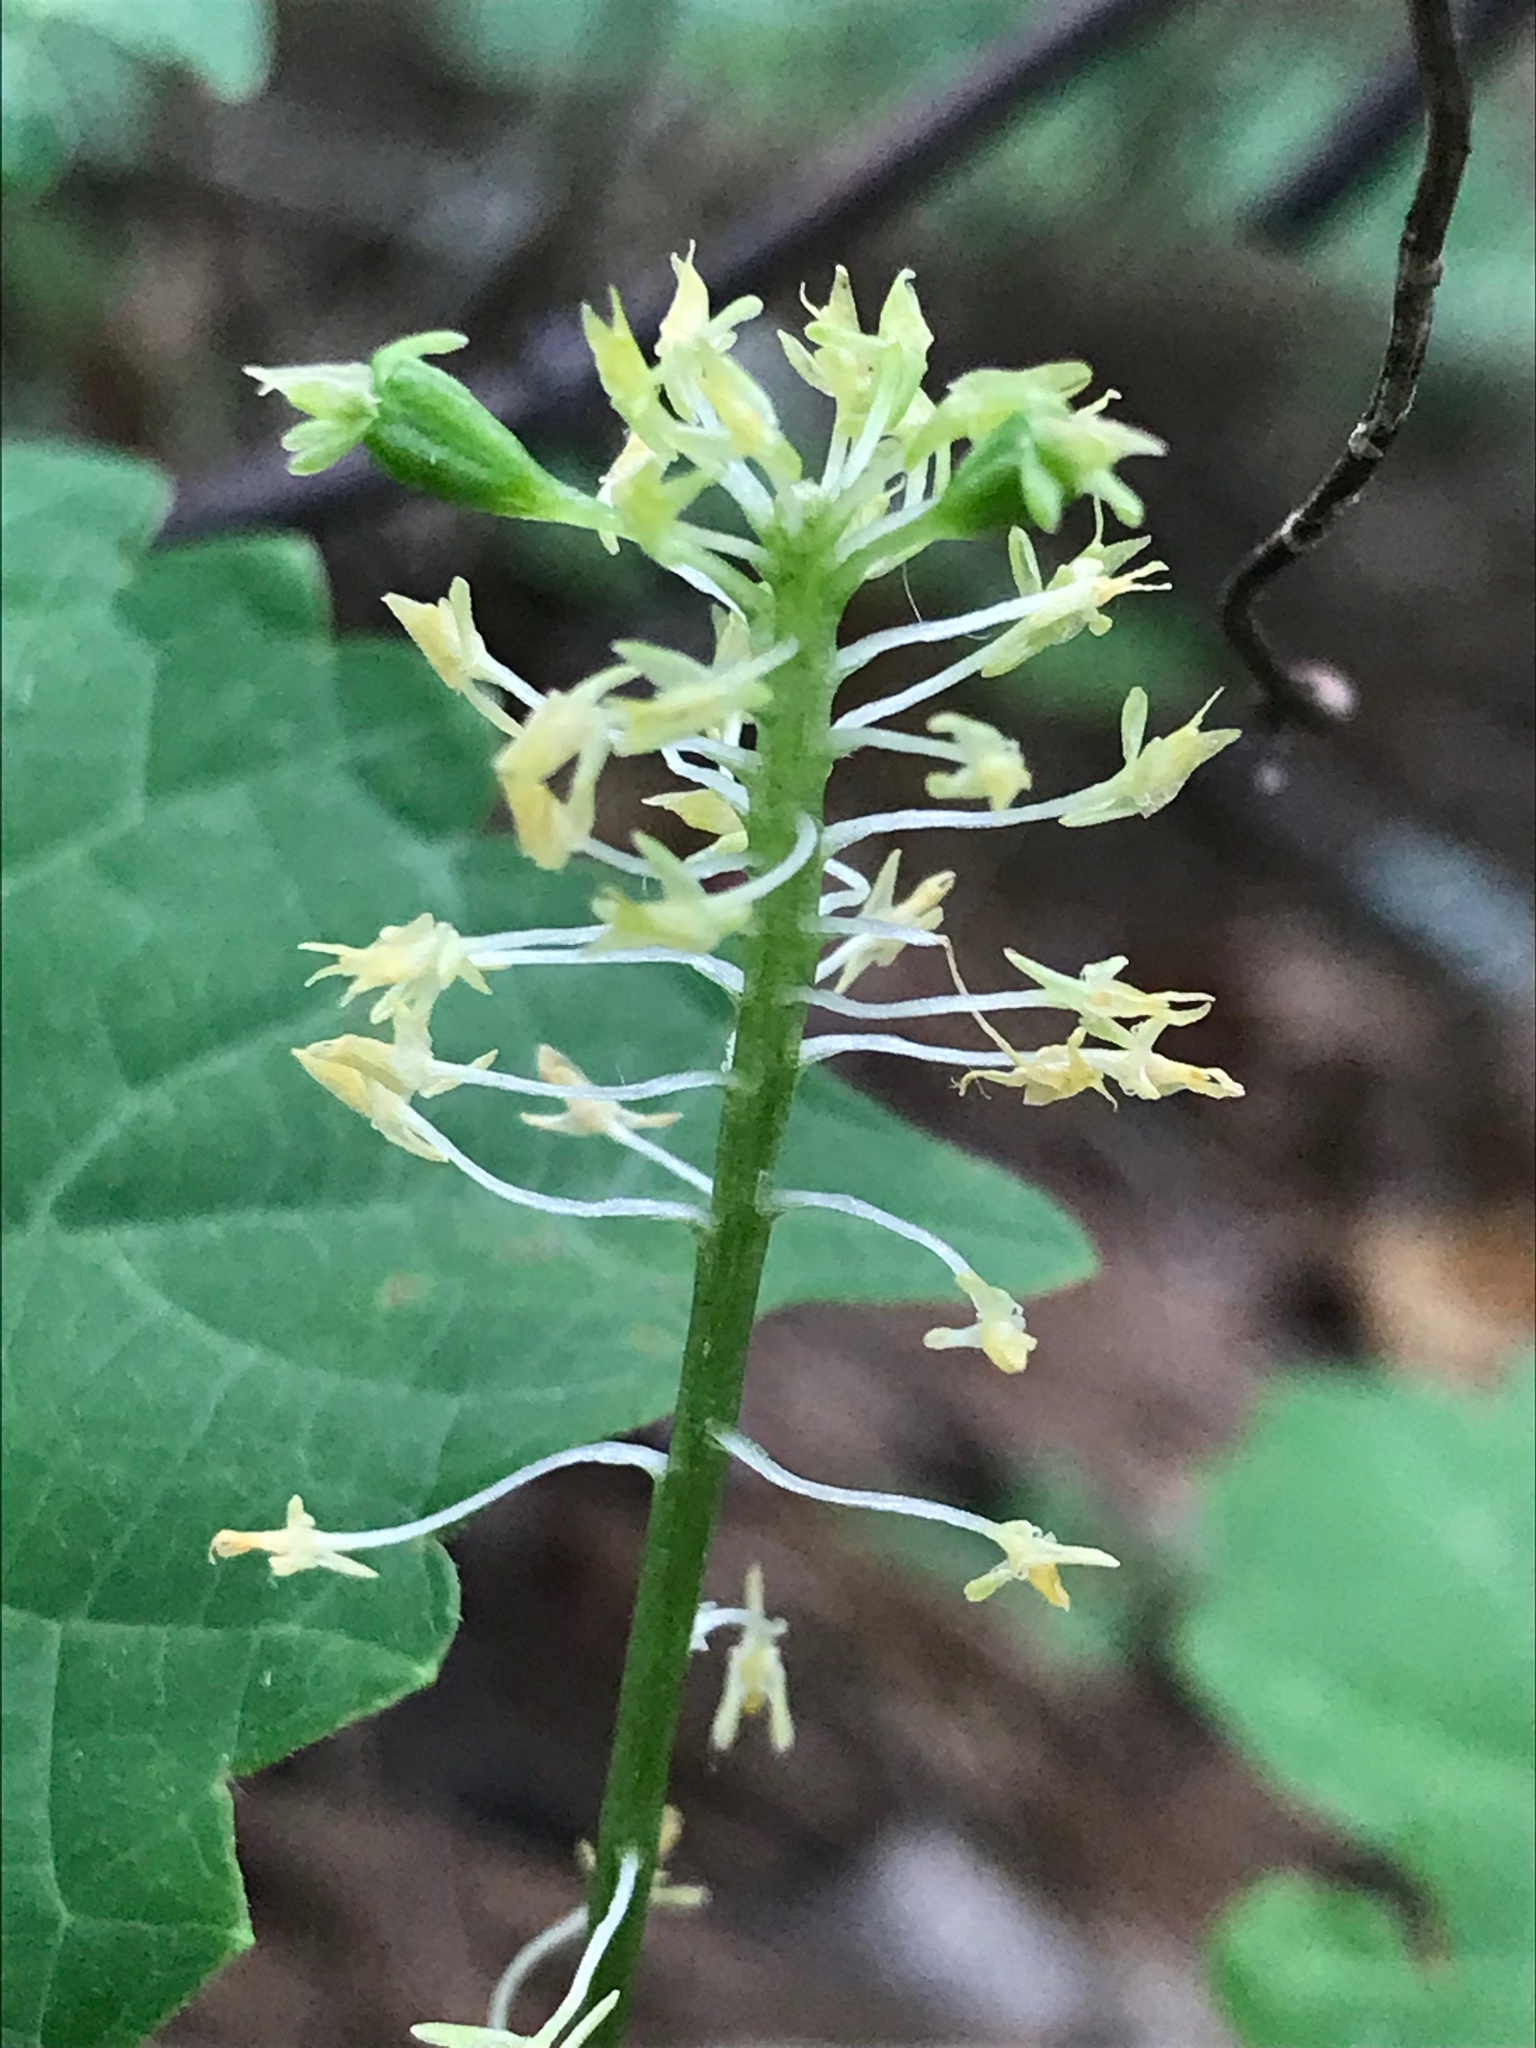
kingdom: Plantae
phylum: Tracheophyta
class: Liliopsida
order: Asparagales
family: Orchidaceae
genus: Malaxis
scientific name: Malaxis unifolia
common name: Green adder's-mouth
